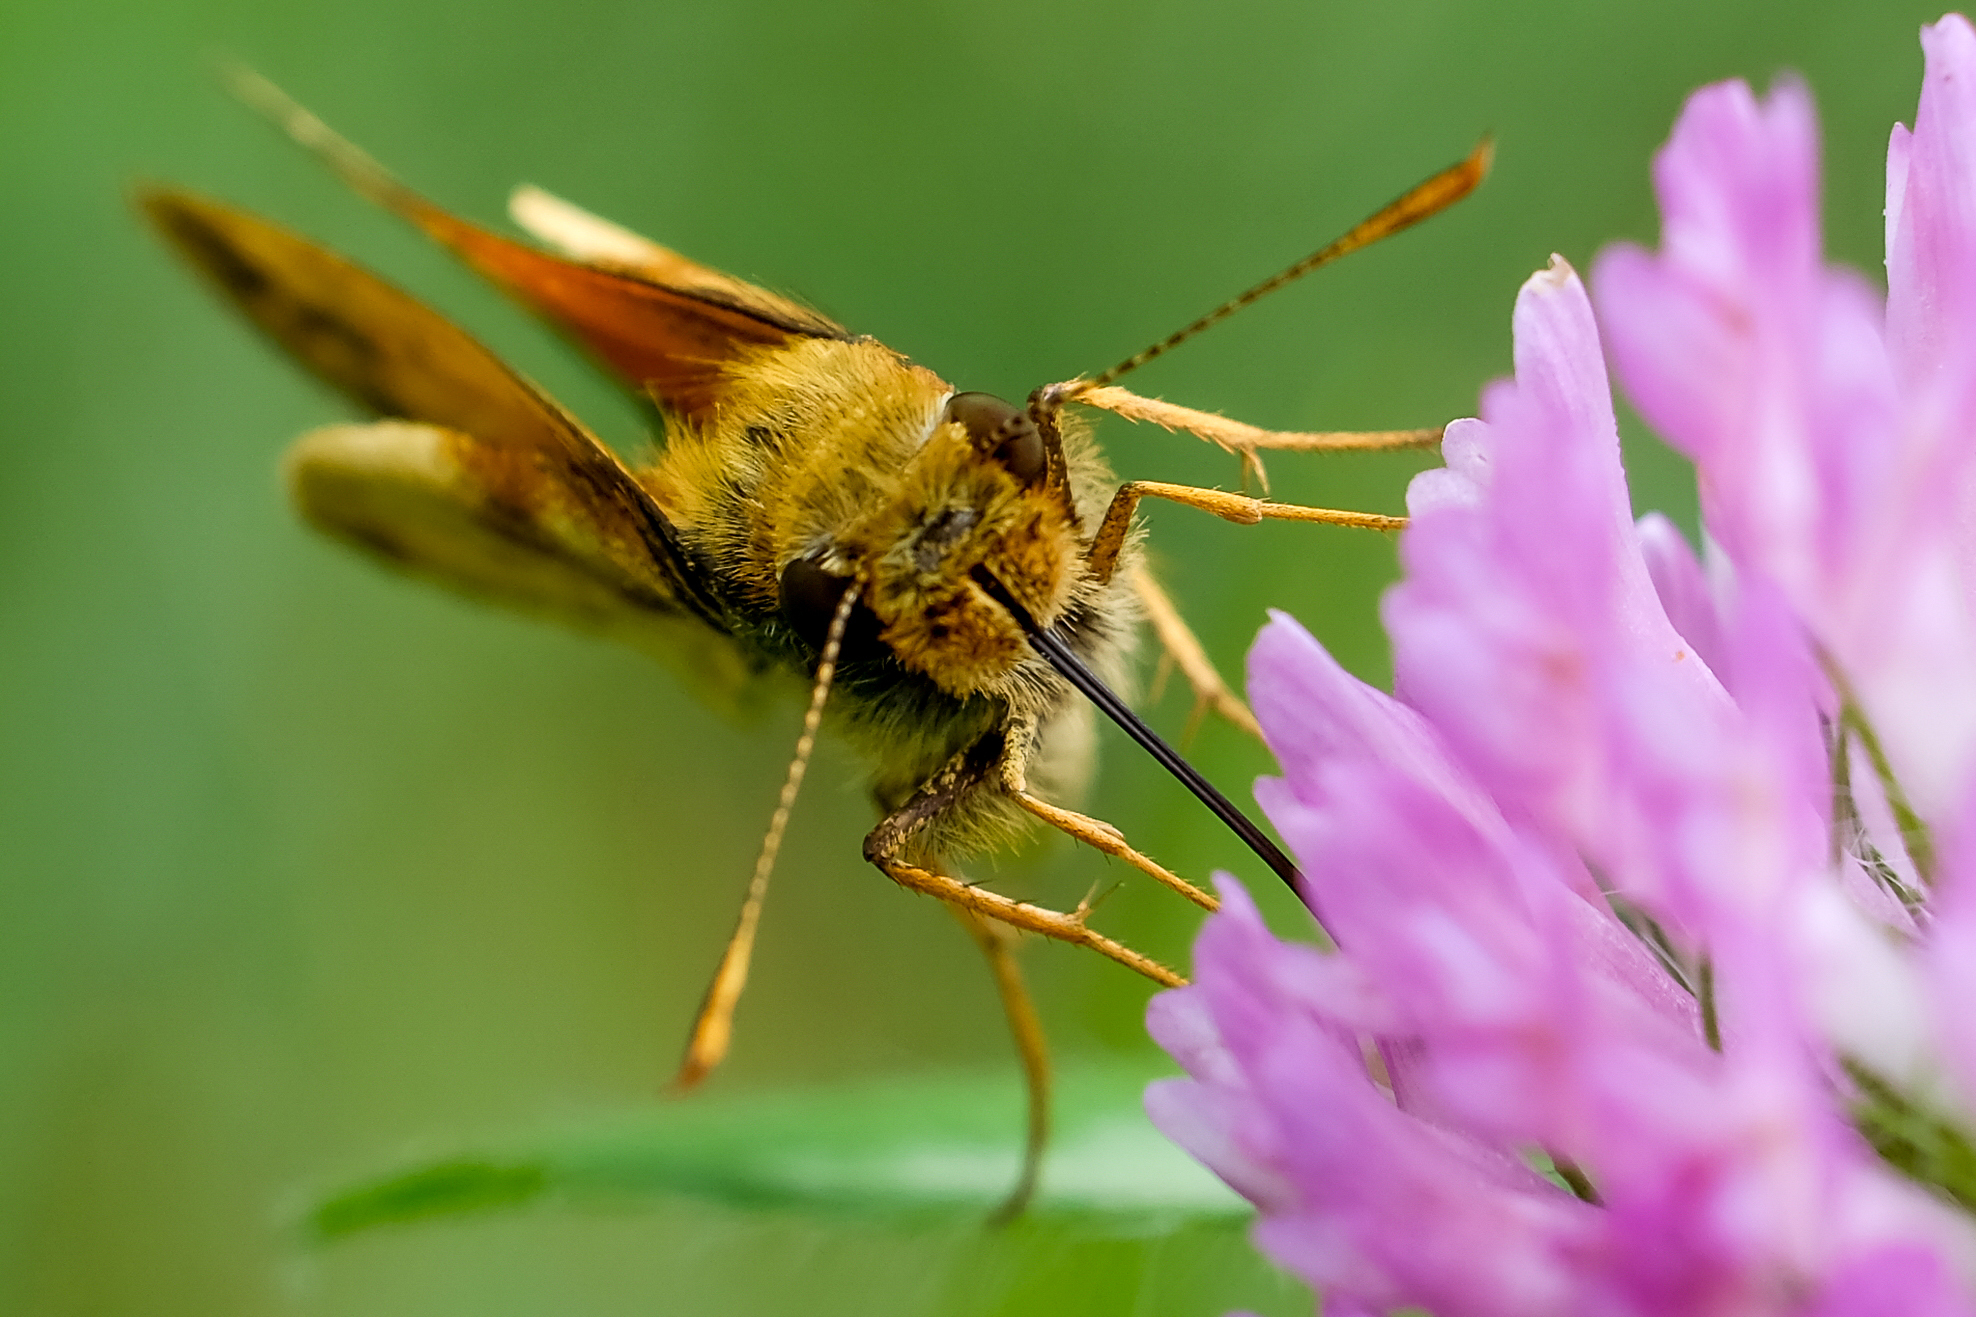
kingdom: Animalia
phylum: Arthropoda
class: Insecta
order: Lepidoptera
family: Hesperiidae
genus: Lon
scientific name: Lon zabulon
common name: Zabulon skipper
